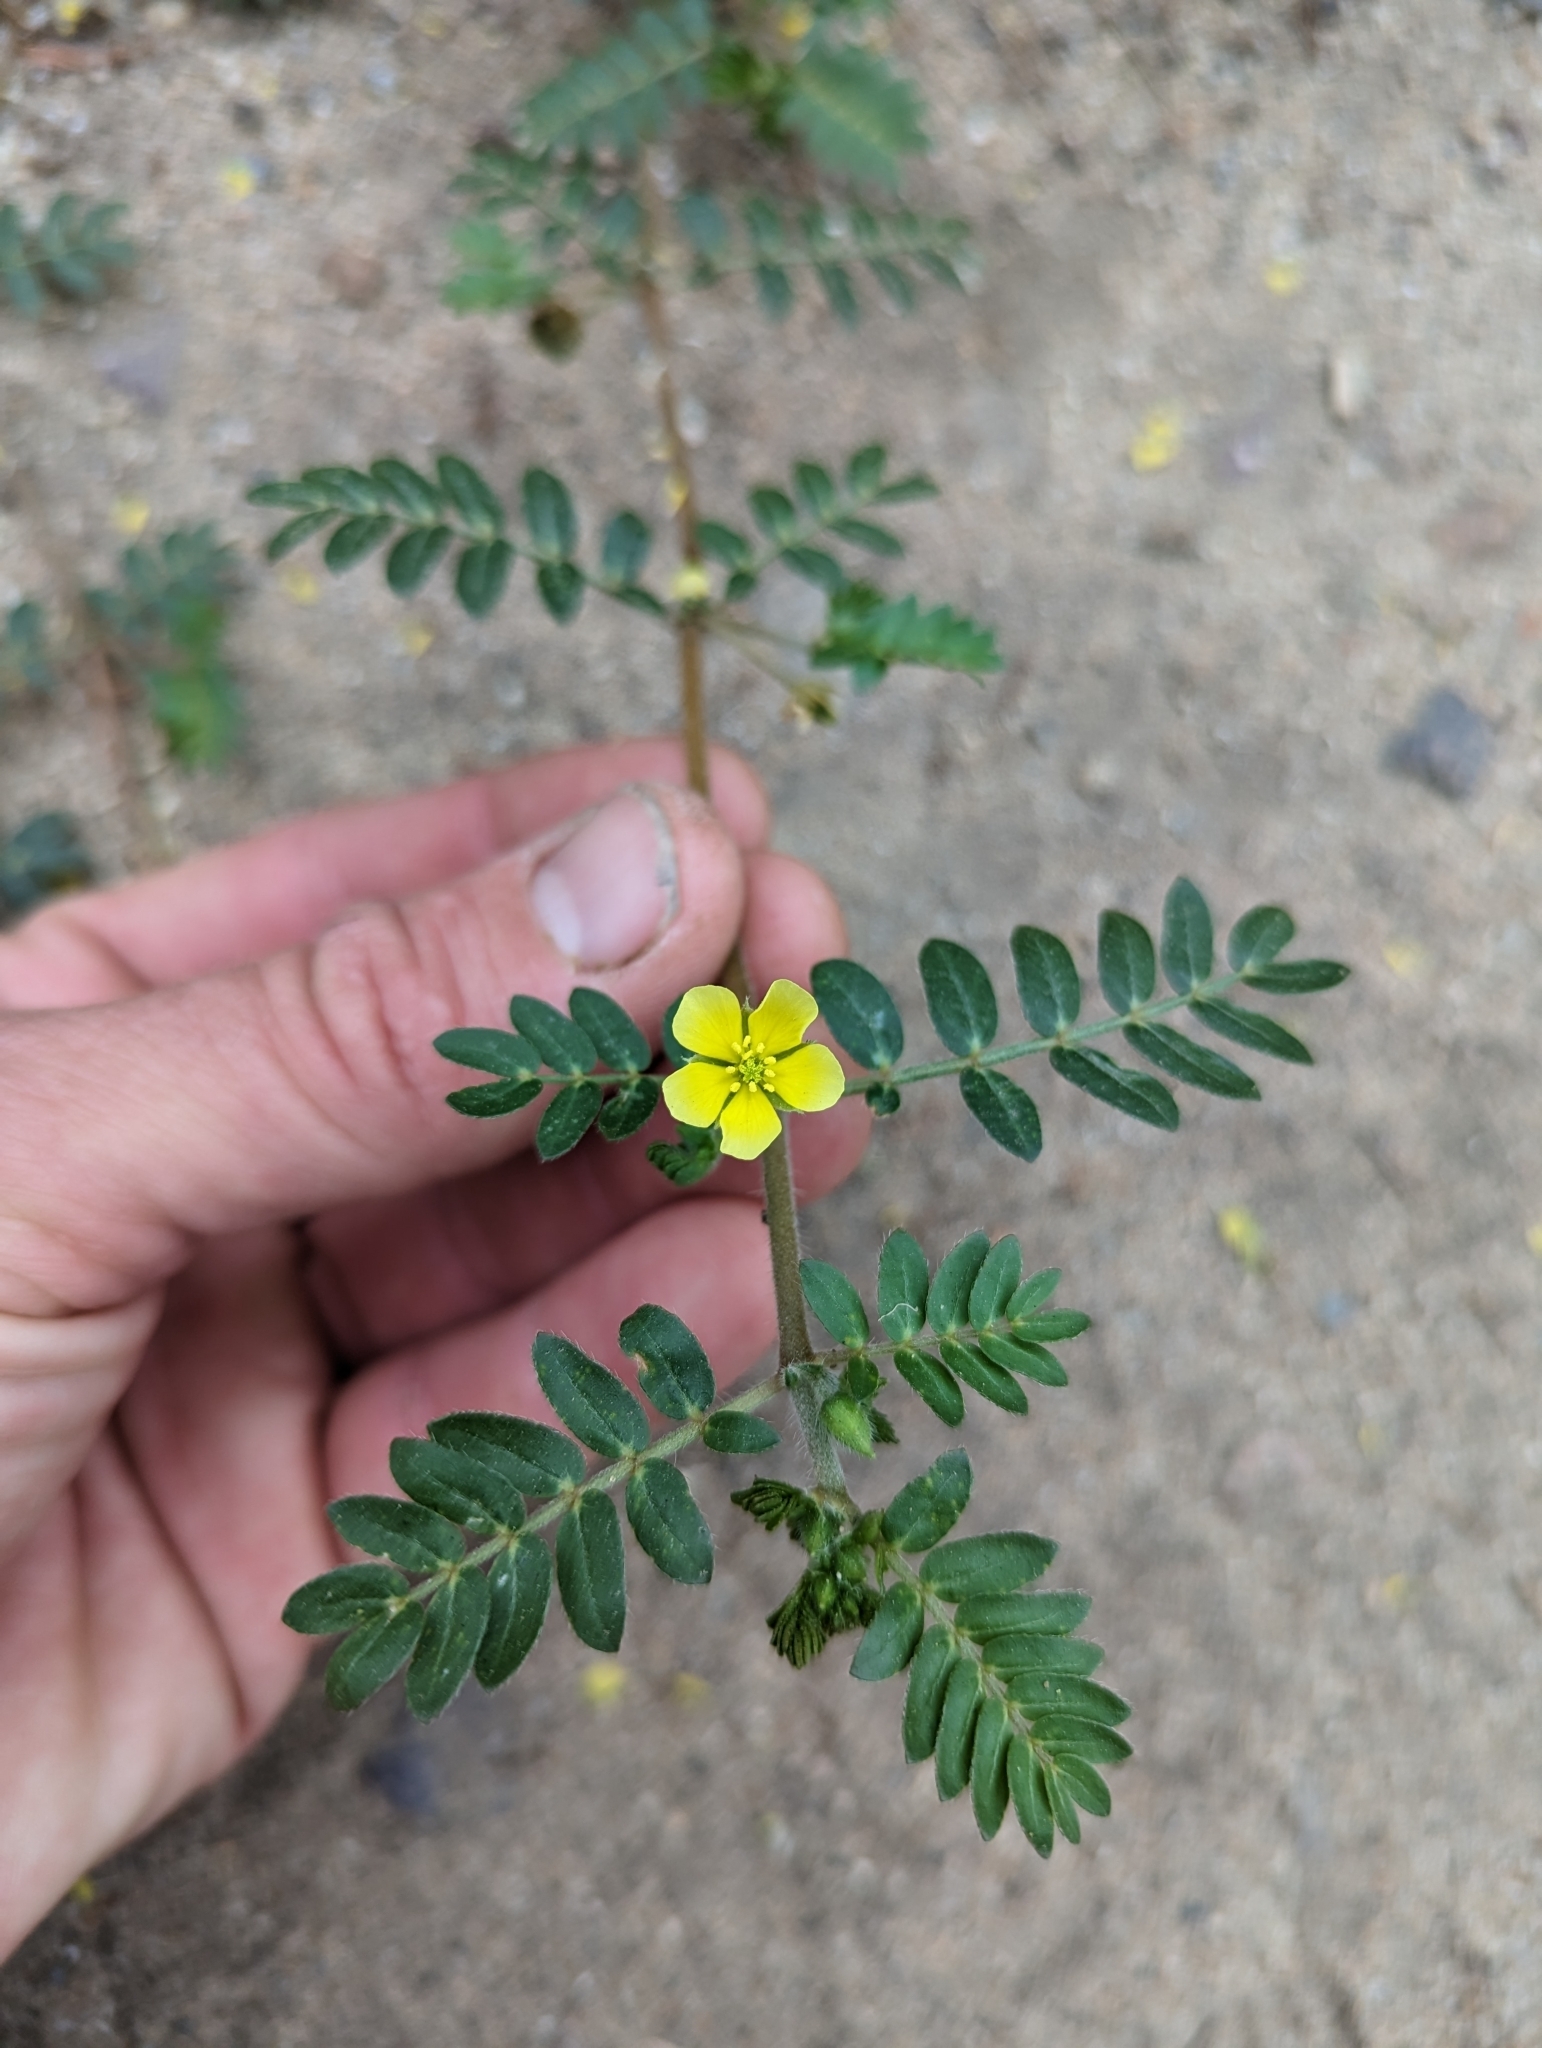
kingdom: Plantae
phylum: Tracheophyta
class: Magnoliopsida
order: Zygophyllales
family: Zygophyllaceae
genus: Tribulus
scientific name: Tribulus terrestris
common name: Puncturevine
